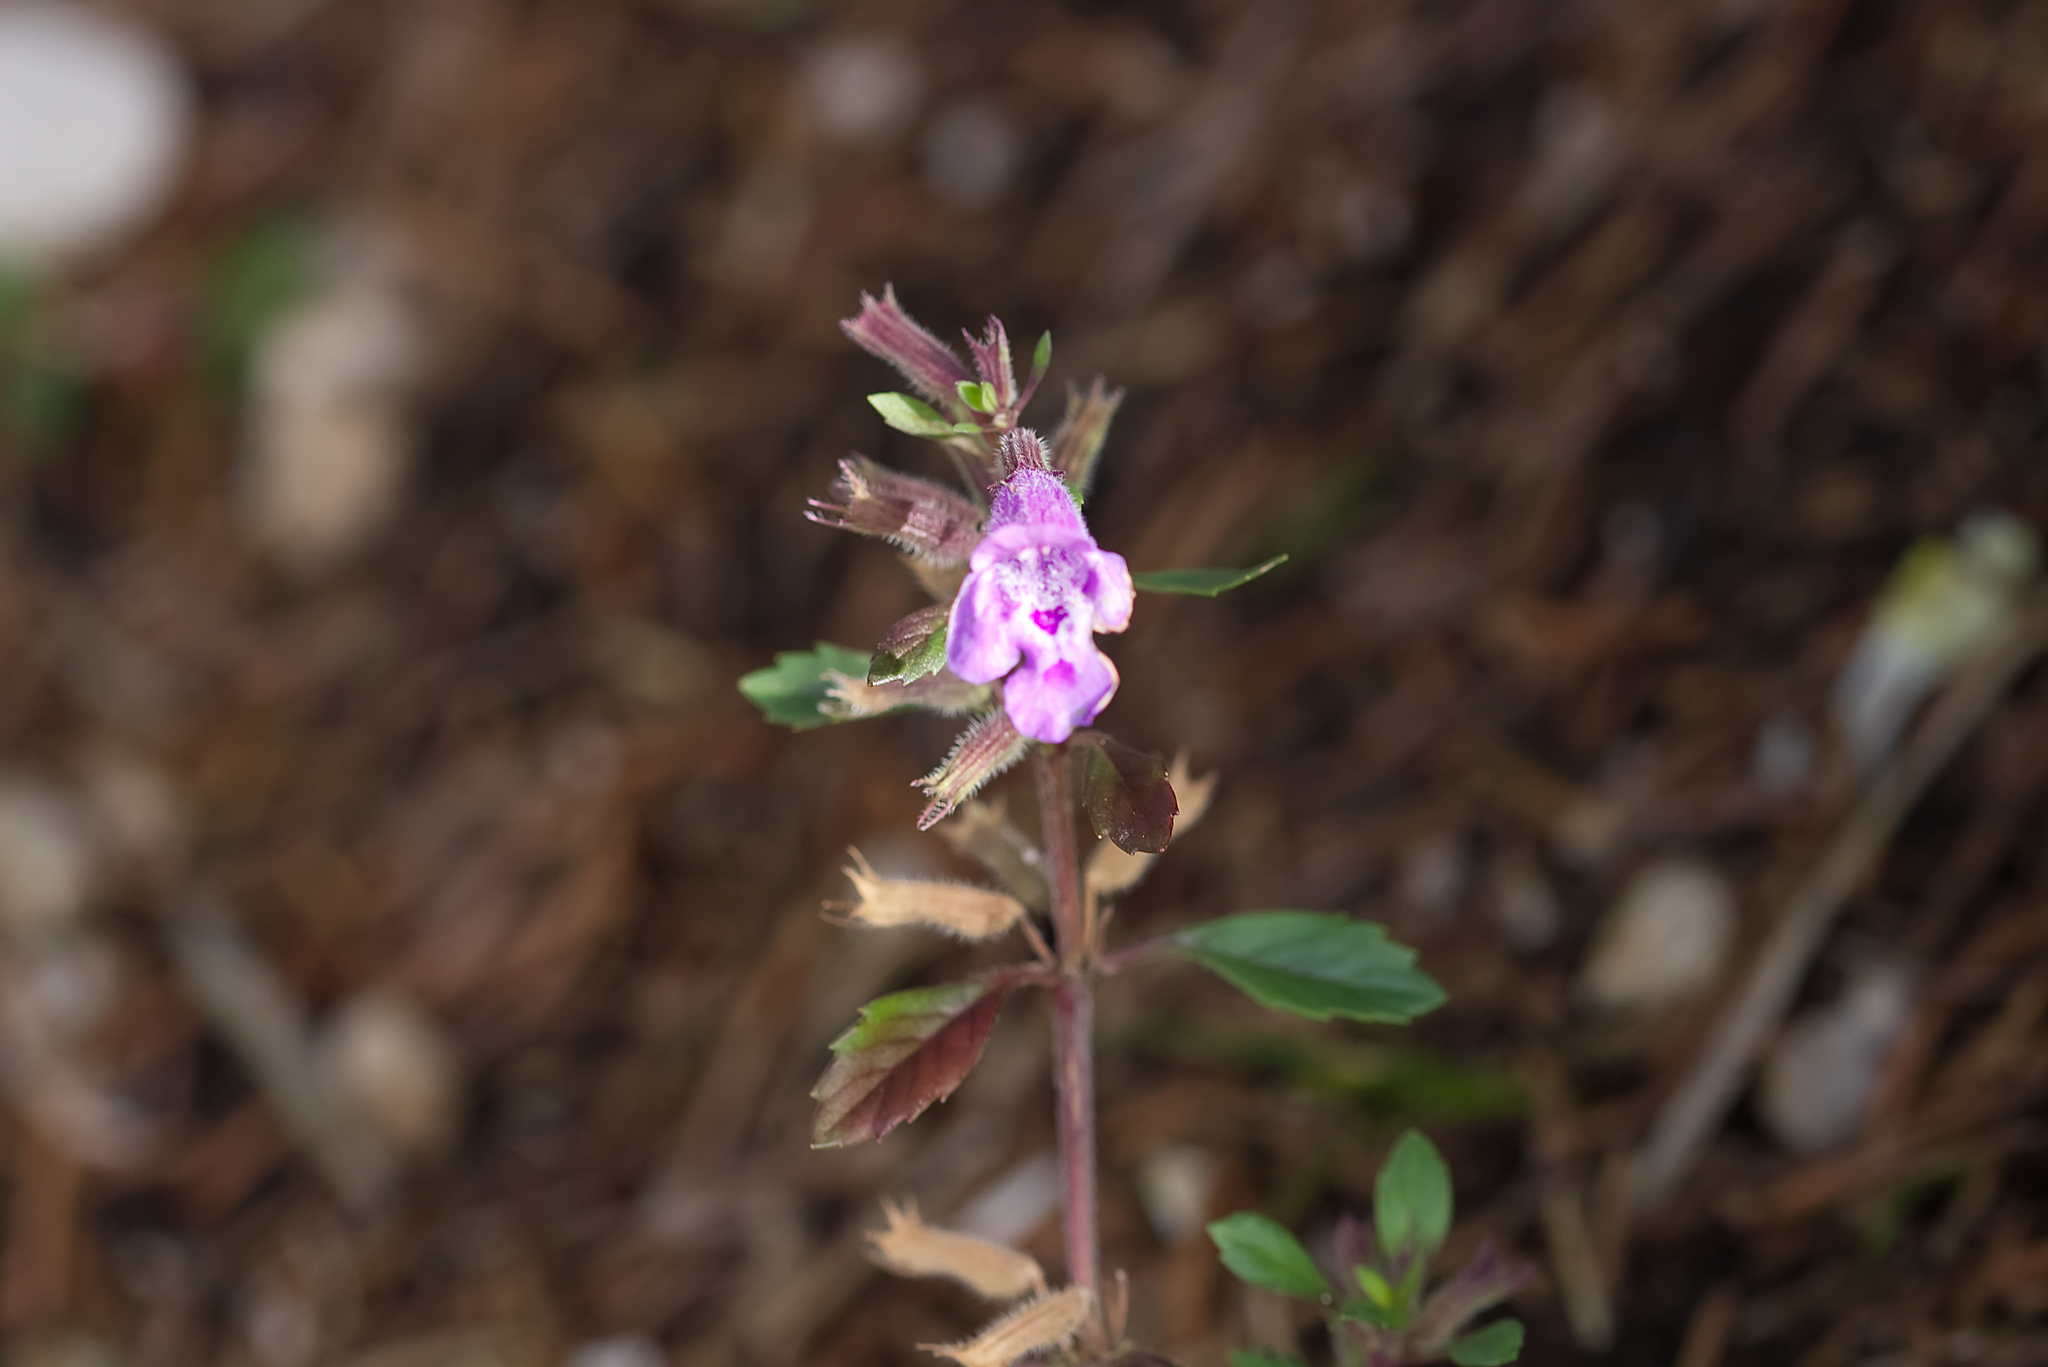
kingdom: Plantae
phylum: Tracheophyta
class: Magnoliopsida
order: Lamiales
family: Lamiaceae
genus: Clinopodium
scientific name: Clinopodium alpinum
